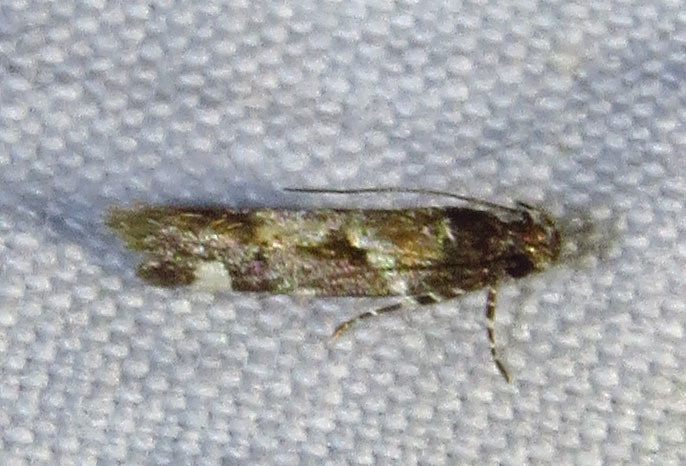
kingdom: Animalia
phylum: Arthropoda
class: Insecta
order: Lepidoptera
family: Gelechiidae
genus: Stegasta
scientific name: Stegasta bosqueella
